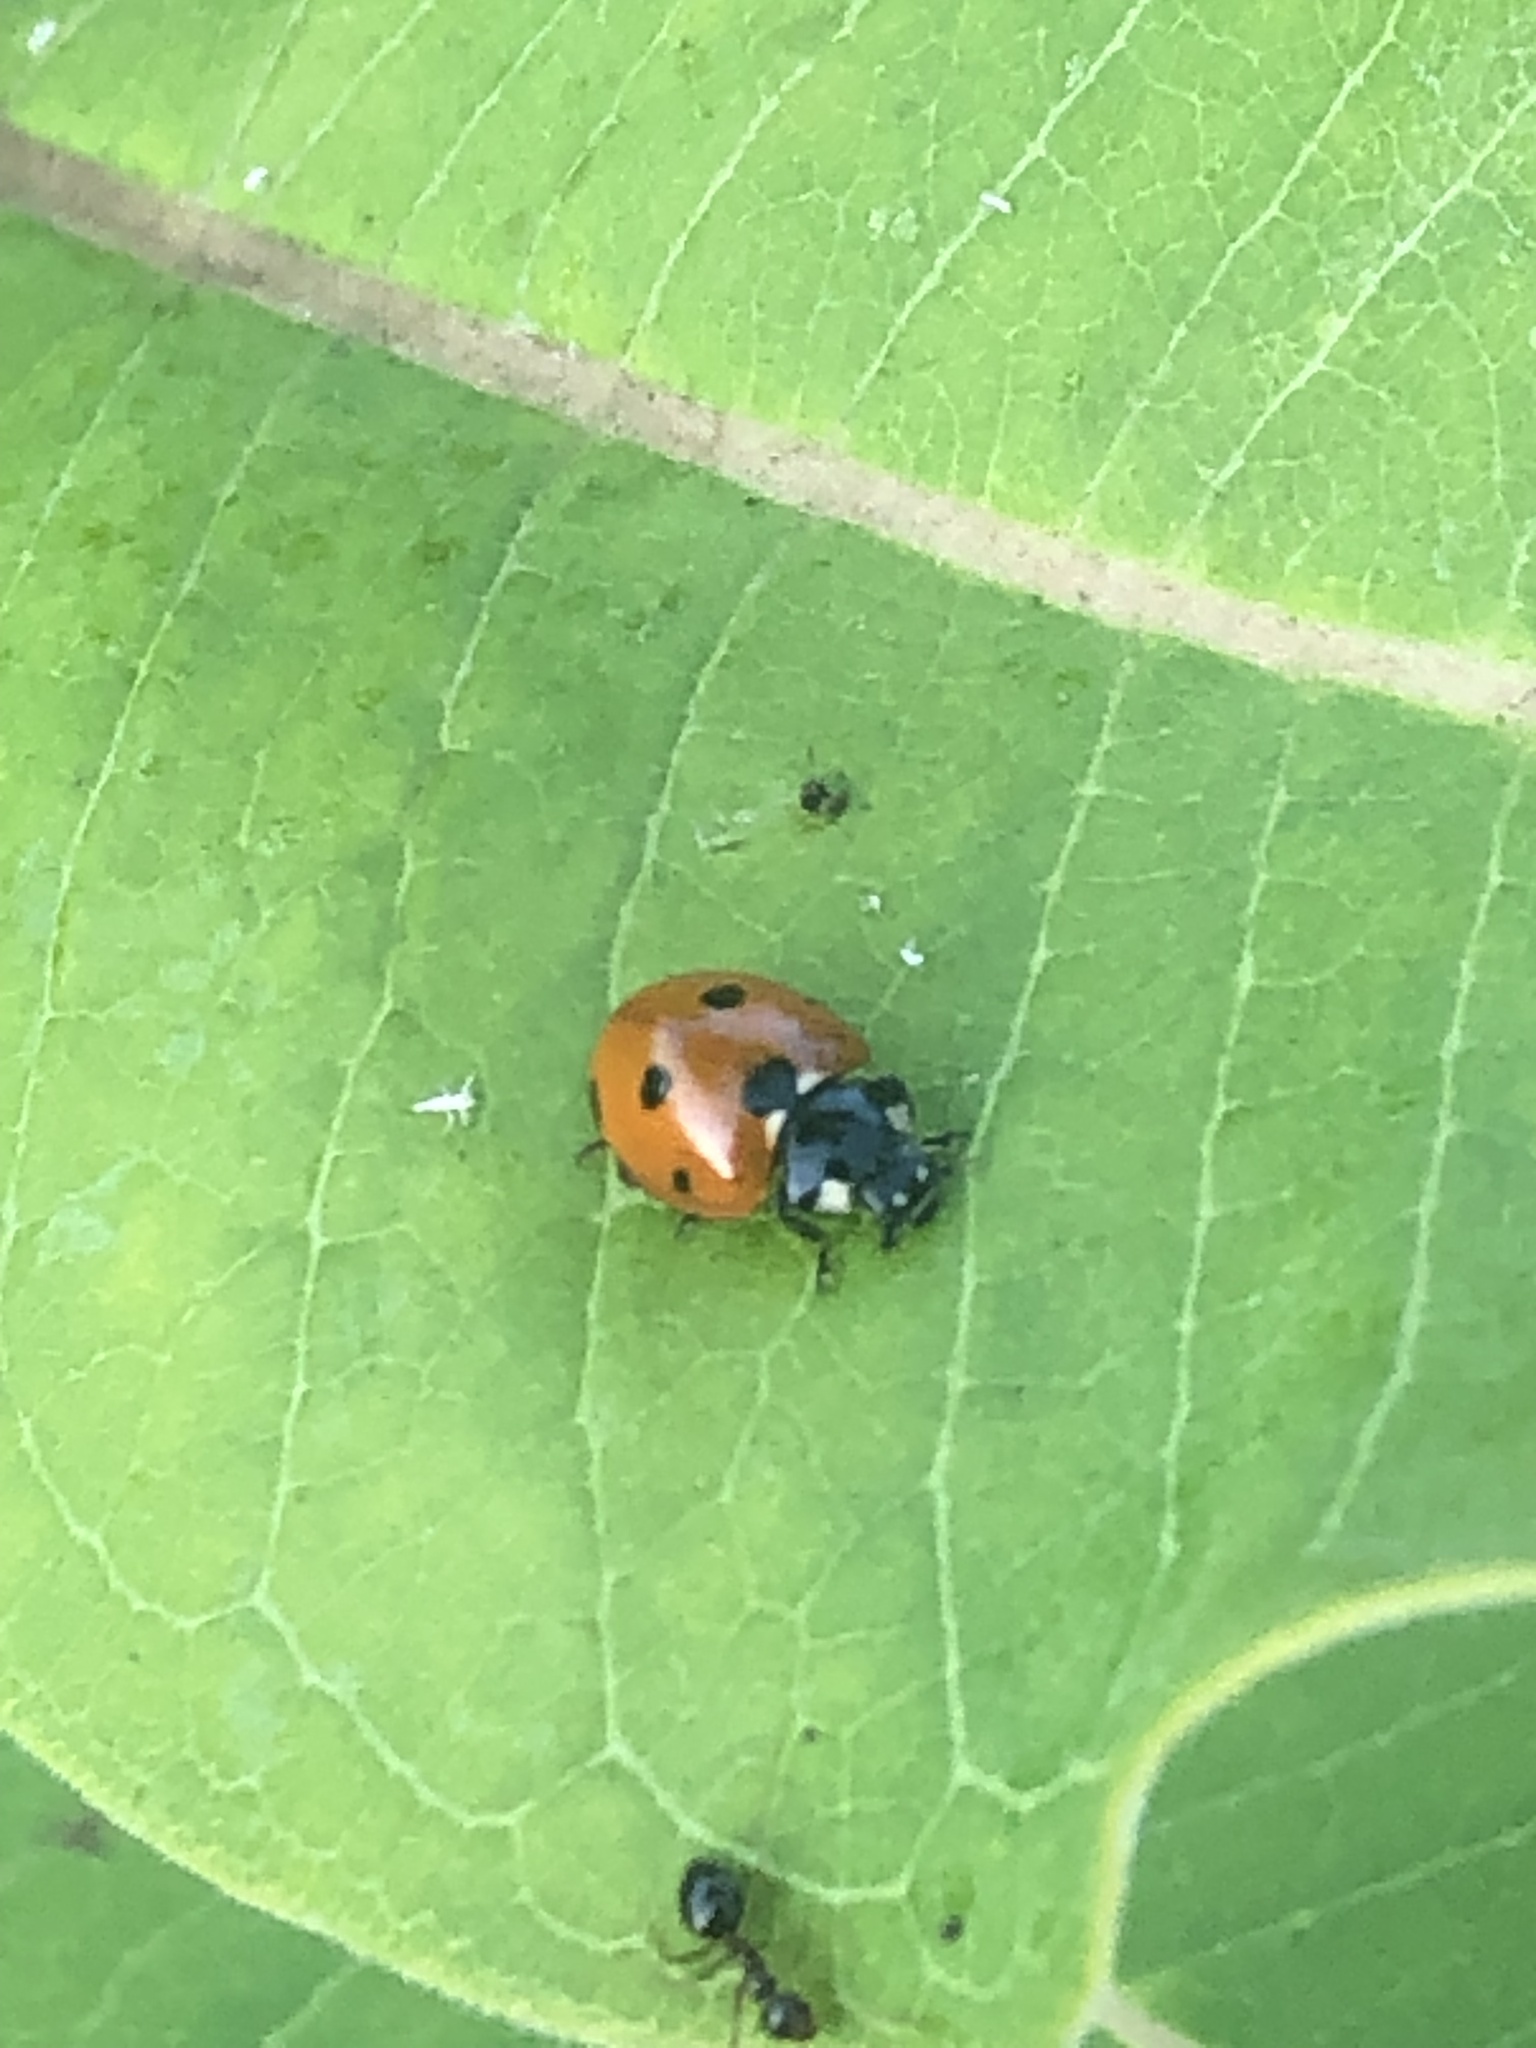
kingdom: Animalia
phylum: Arthropoda
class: Insecta
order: Coleoptera
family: Coccinellidae
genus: Coccinella
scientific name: Coccinella septempunctata
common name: Sevenspotted lady beetle
